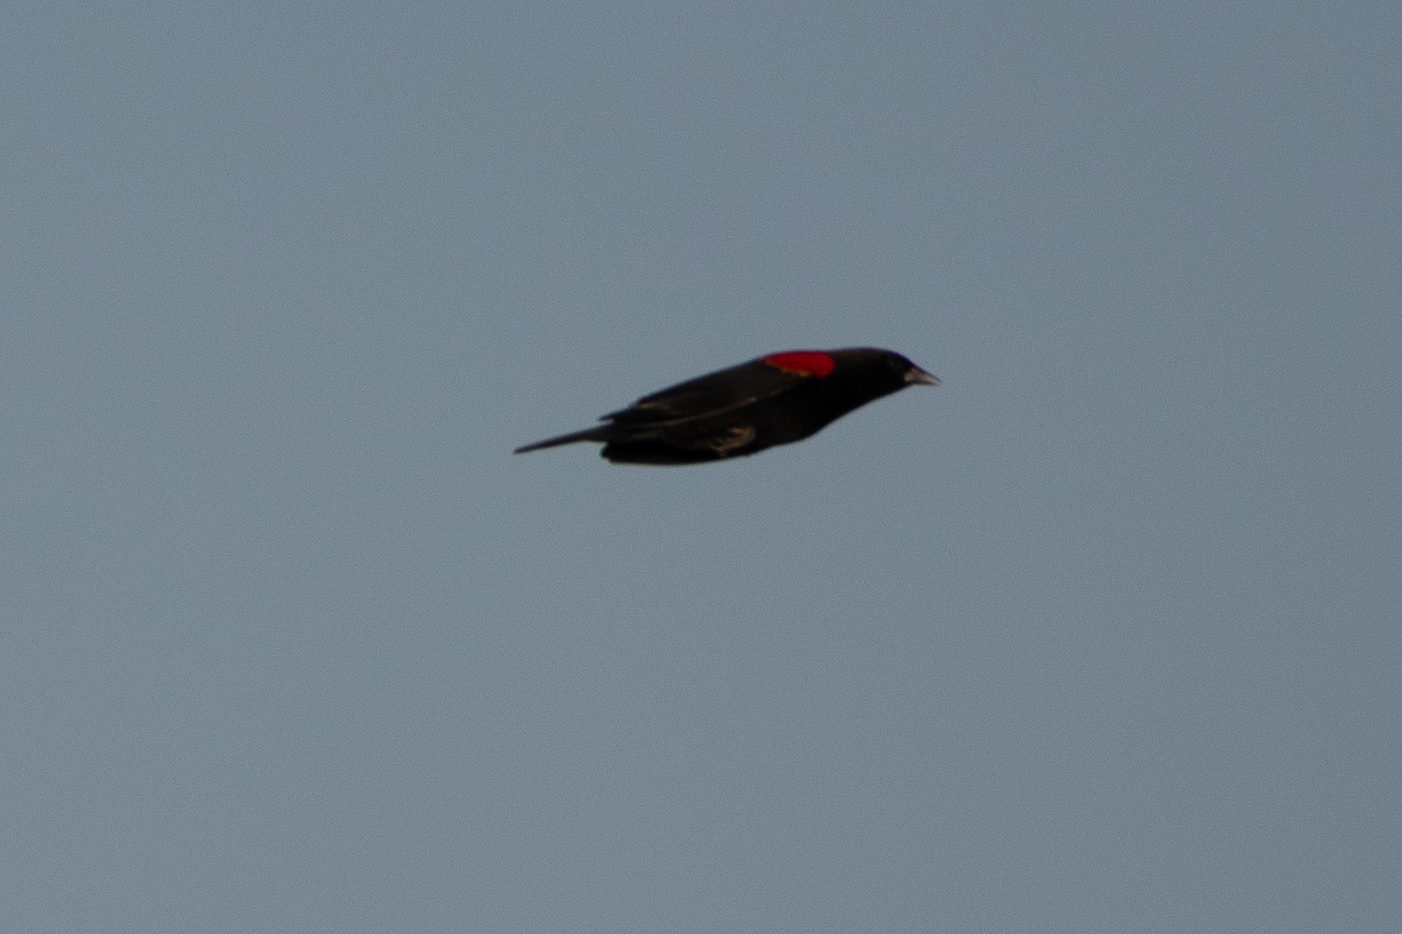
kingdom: Animalia
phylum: Chordata
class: Aves
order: Passeriformes
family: Icteridae
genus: Agelaius
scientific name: Agelaius phoeniceus
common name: Red-winged blackbird
